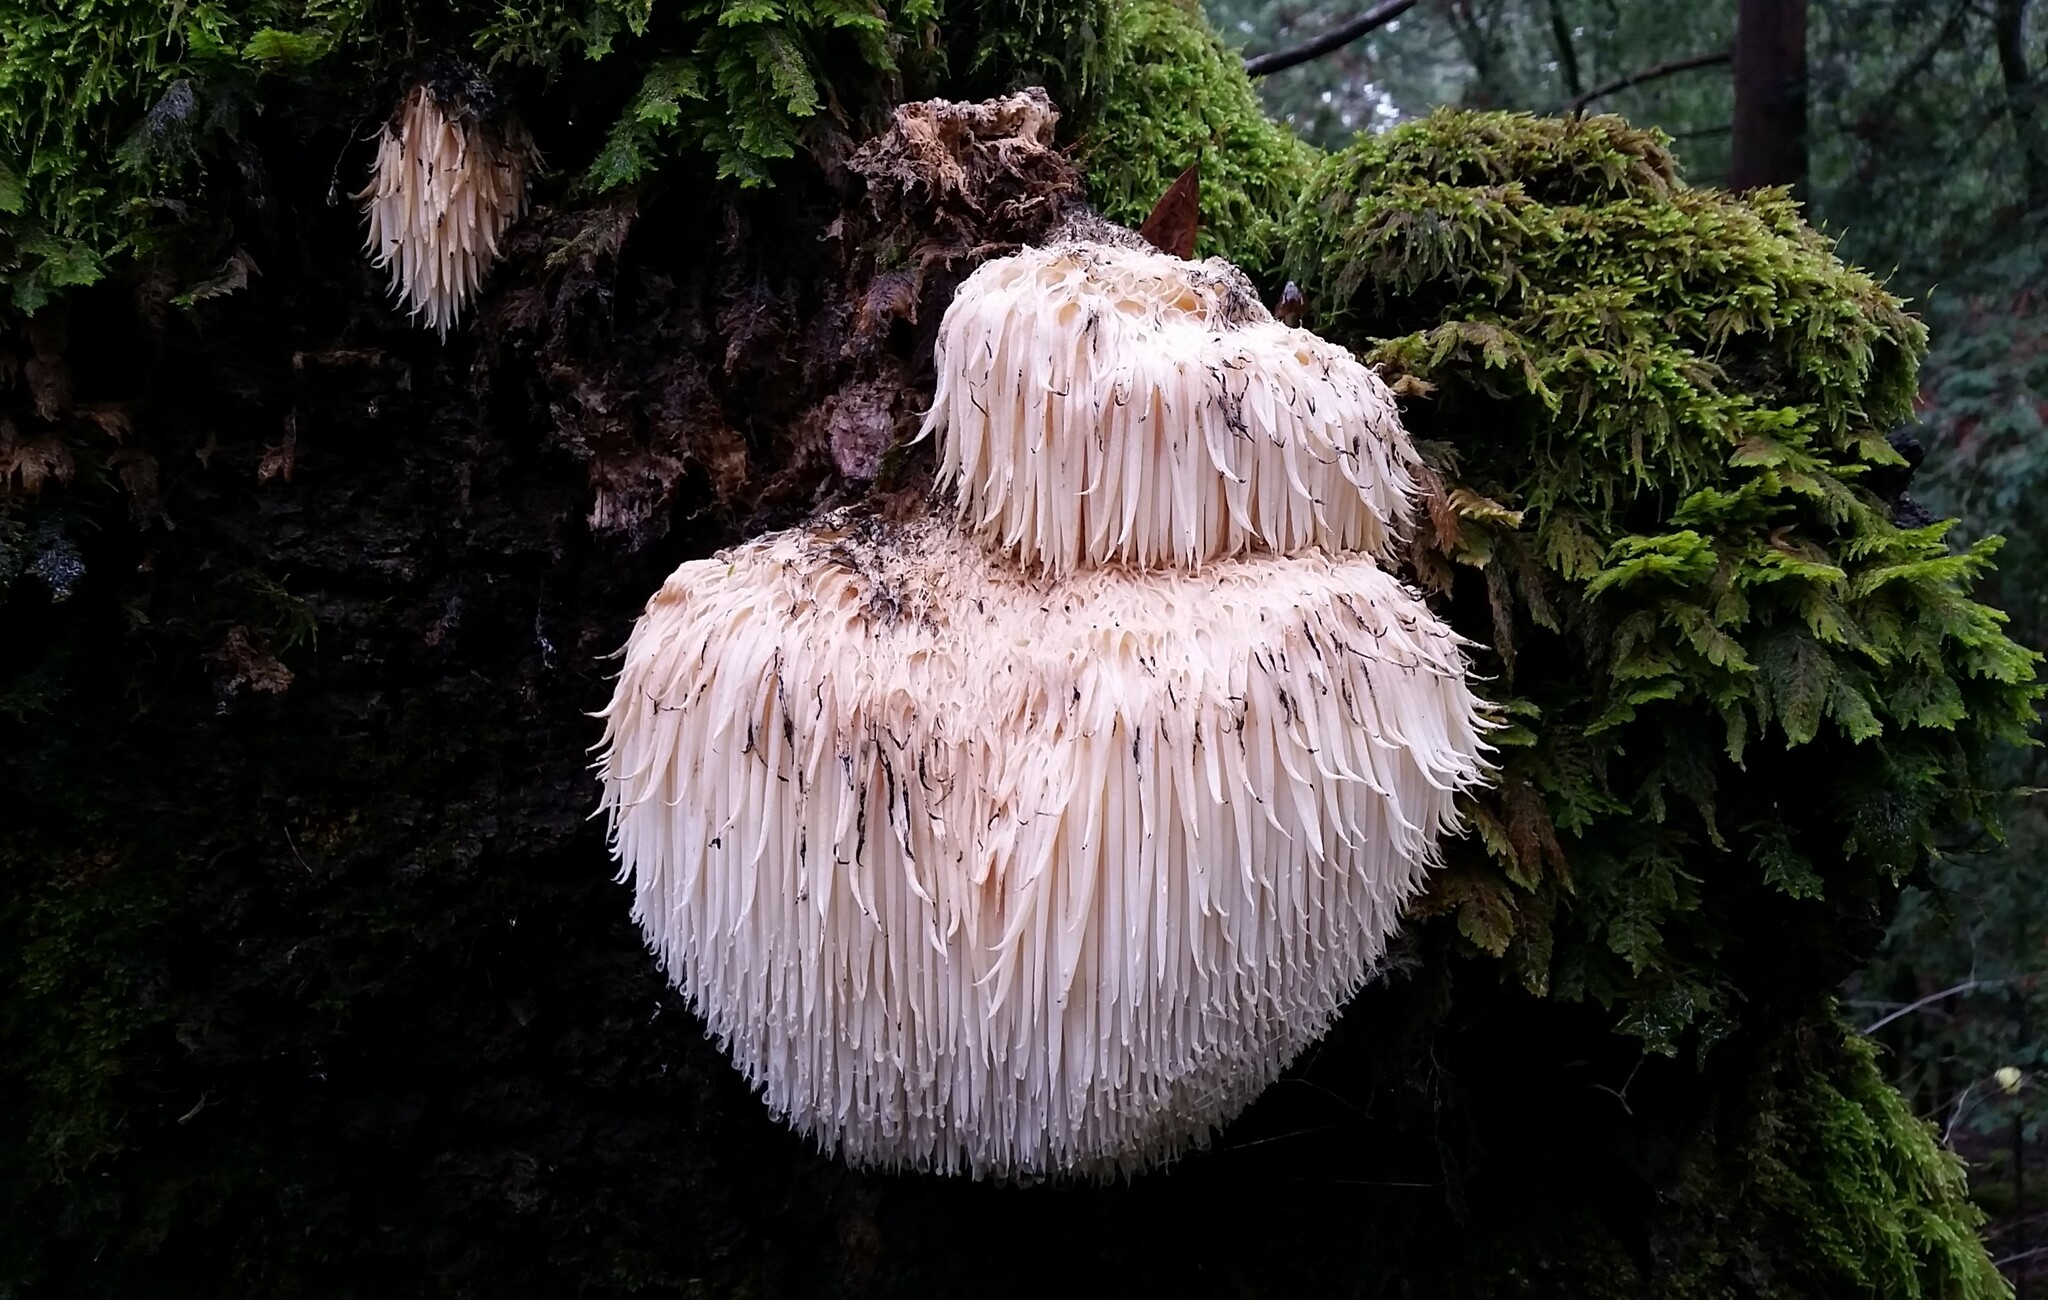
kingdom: Fungi
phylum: Basidiomycota
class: Agaricomycetes
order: Russulales
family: Hericiaceae
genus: Hericium
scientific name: Hericium erinaceus
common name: Bearded tooth
